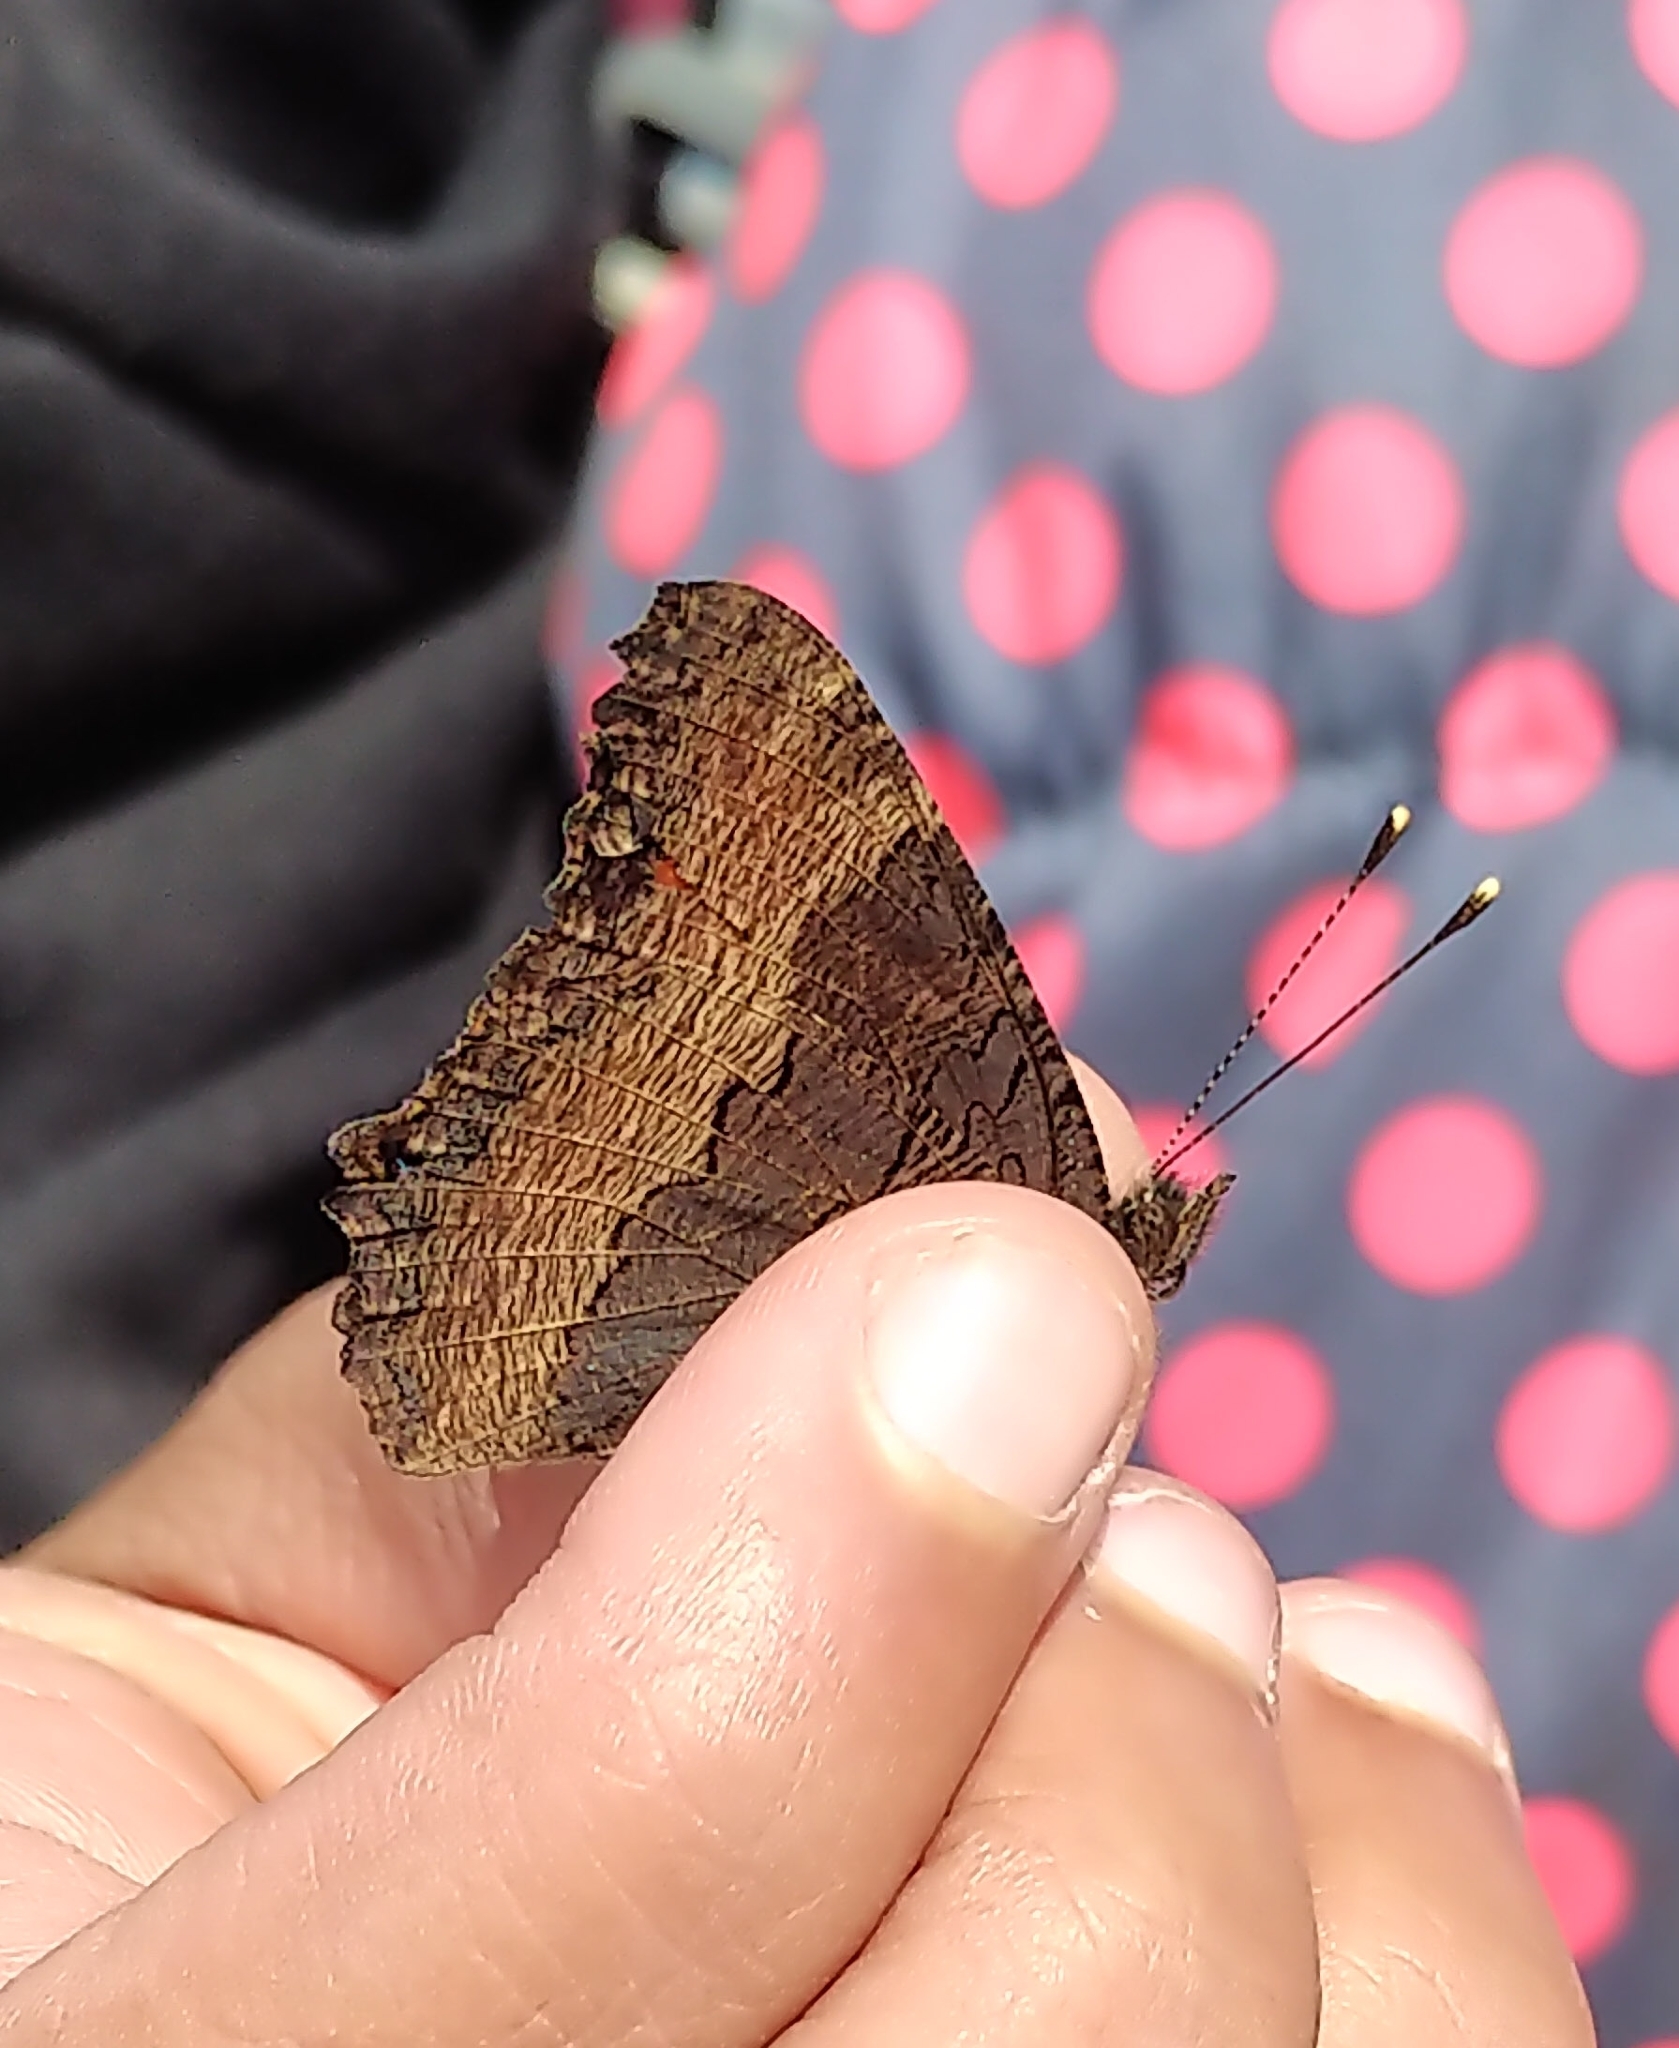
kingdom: Animalia
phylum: Arthropoda
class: Insecta
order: Lepidoptera
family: Nymphalidae
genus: Aglais
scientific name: Aglais milberti
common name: Milbert's tortoiseshell
